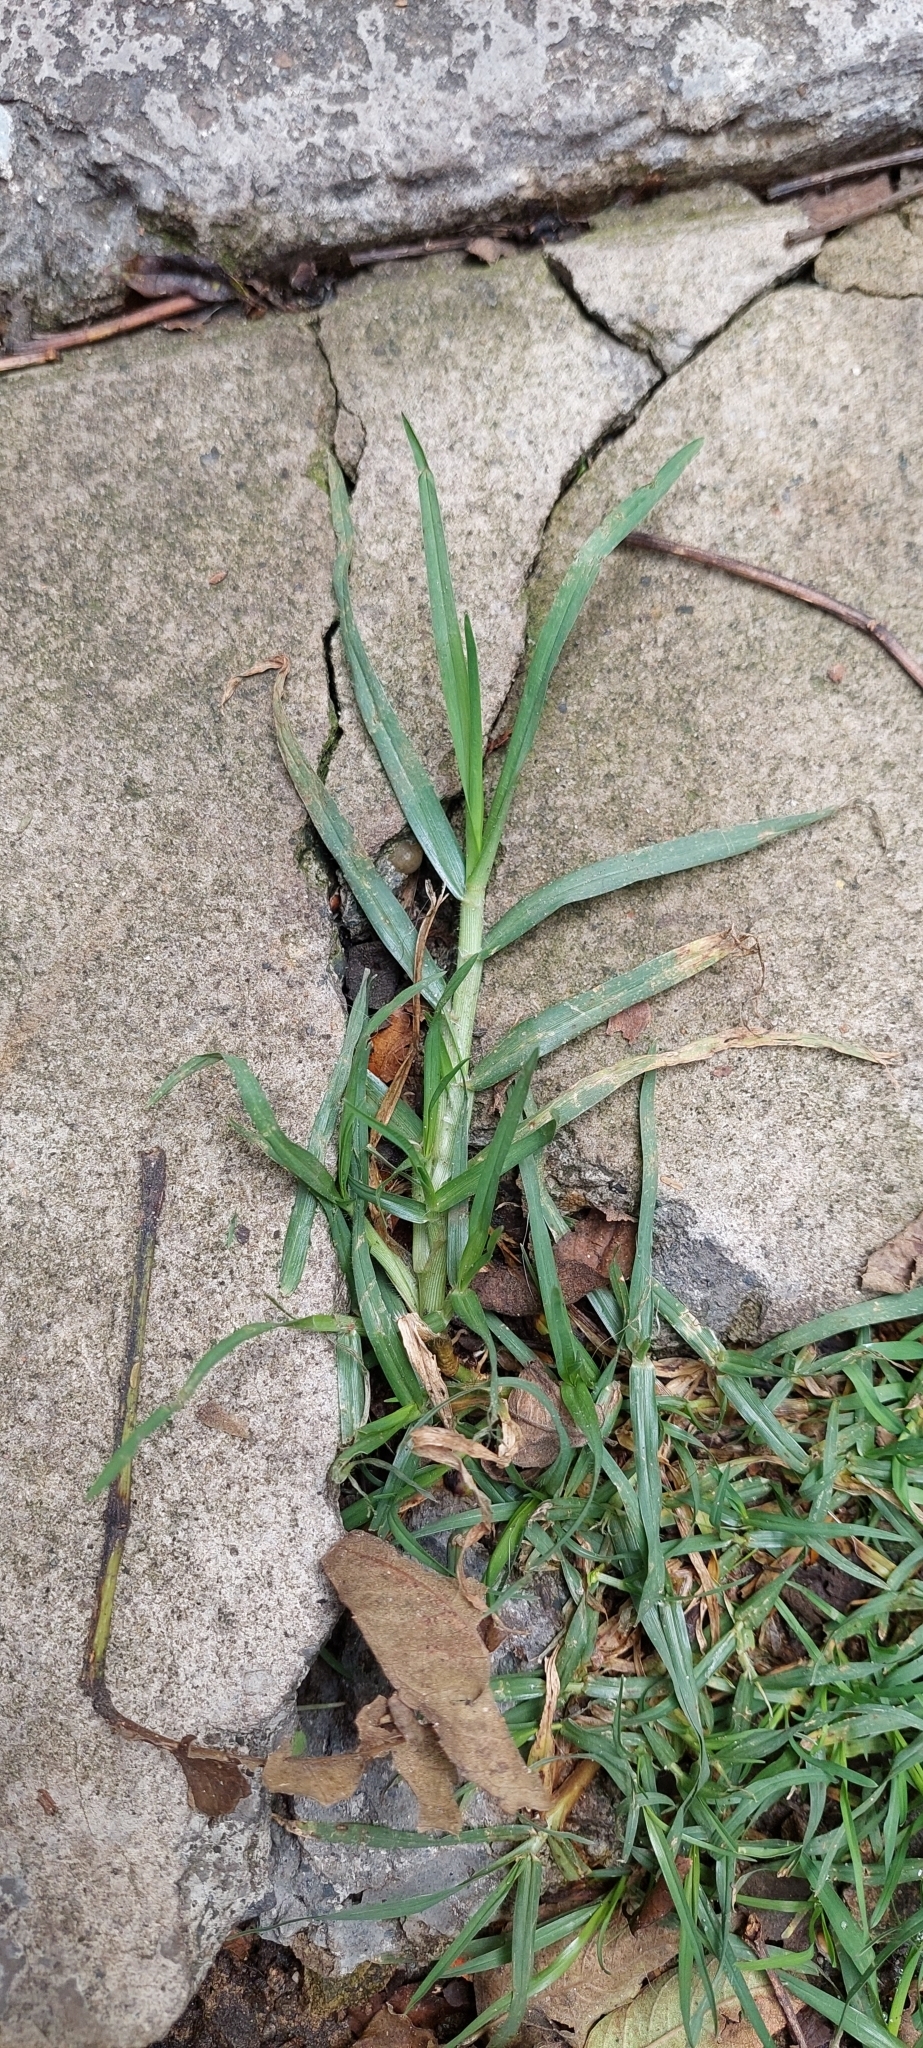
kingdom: Plantae
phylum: Tracheophyta
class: Liliopsida
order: Poales
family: Poaceae
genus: Cenchrus
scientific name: Cenchrus clandestinus
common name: Kikuyugrass
